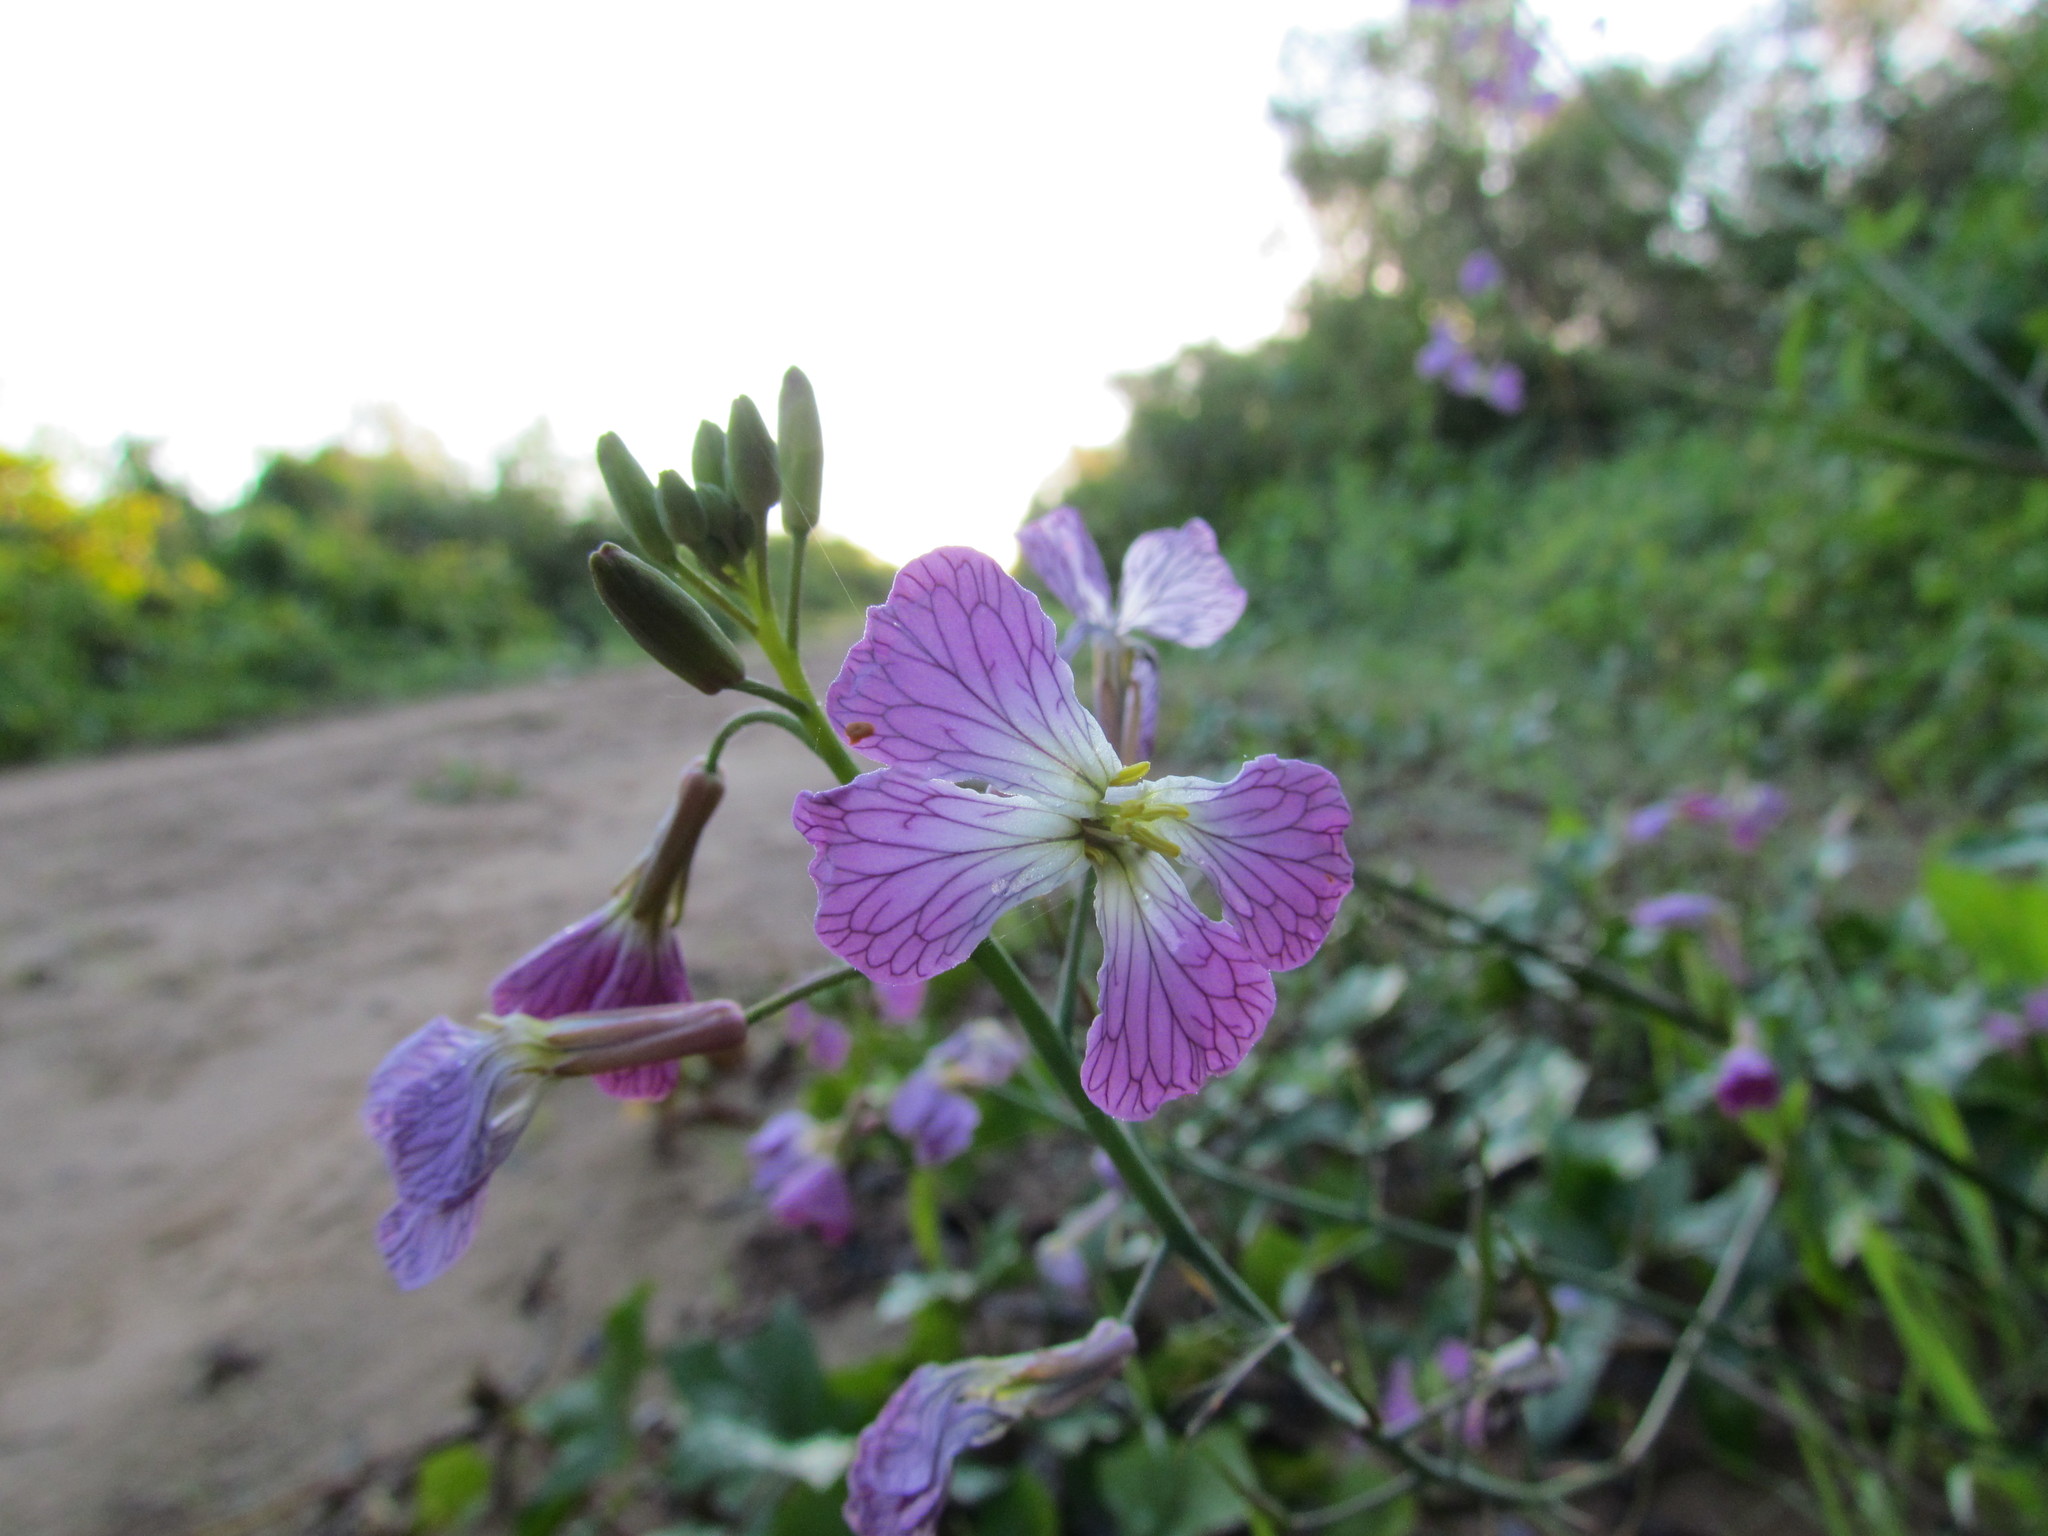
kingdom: Plantae
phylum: Tracheophyta
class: Magnoliopsida
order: Brassicales
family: Brassicaceae
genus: Raphanus
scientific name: Raphanus sativus
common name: Cultivated radish
